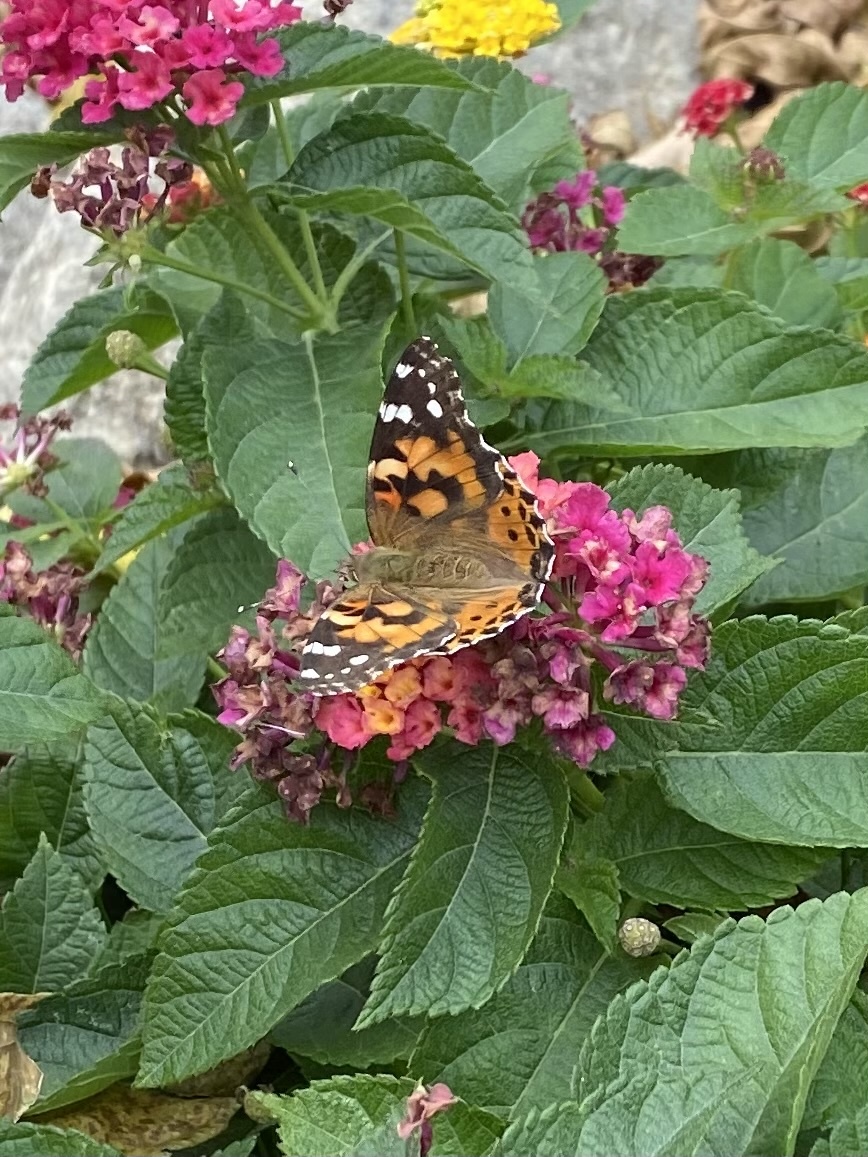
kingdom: Animalia
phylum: Arthropoda
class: Insecta
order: Lepidoptera
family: Nymphalidae
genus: Vanessa
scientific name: Vanessa cardui
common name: Painted lady
